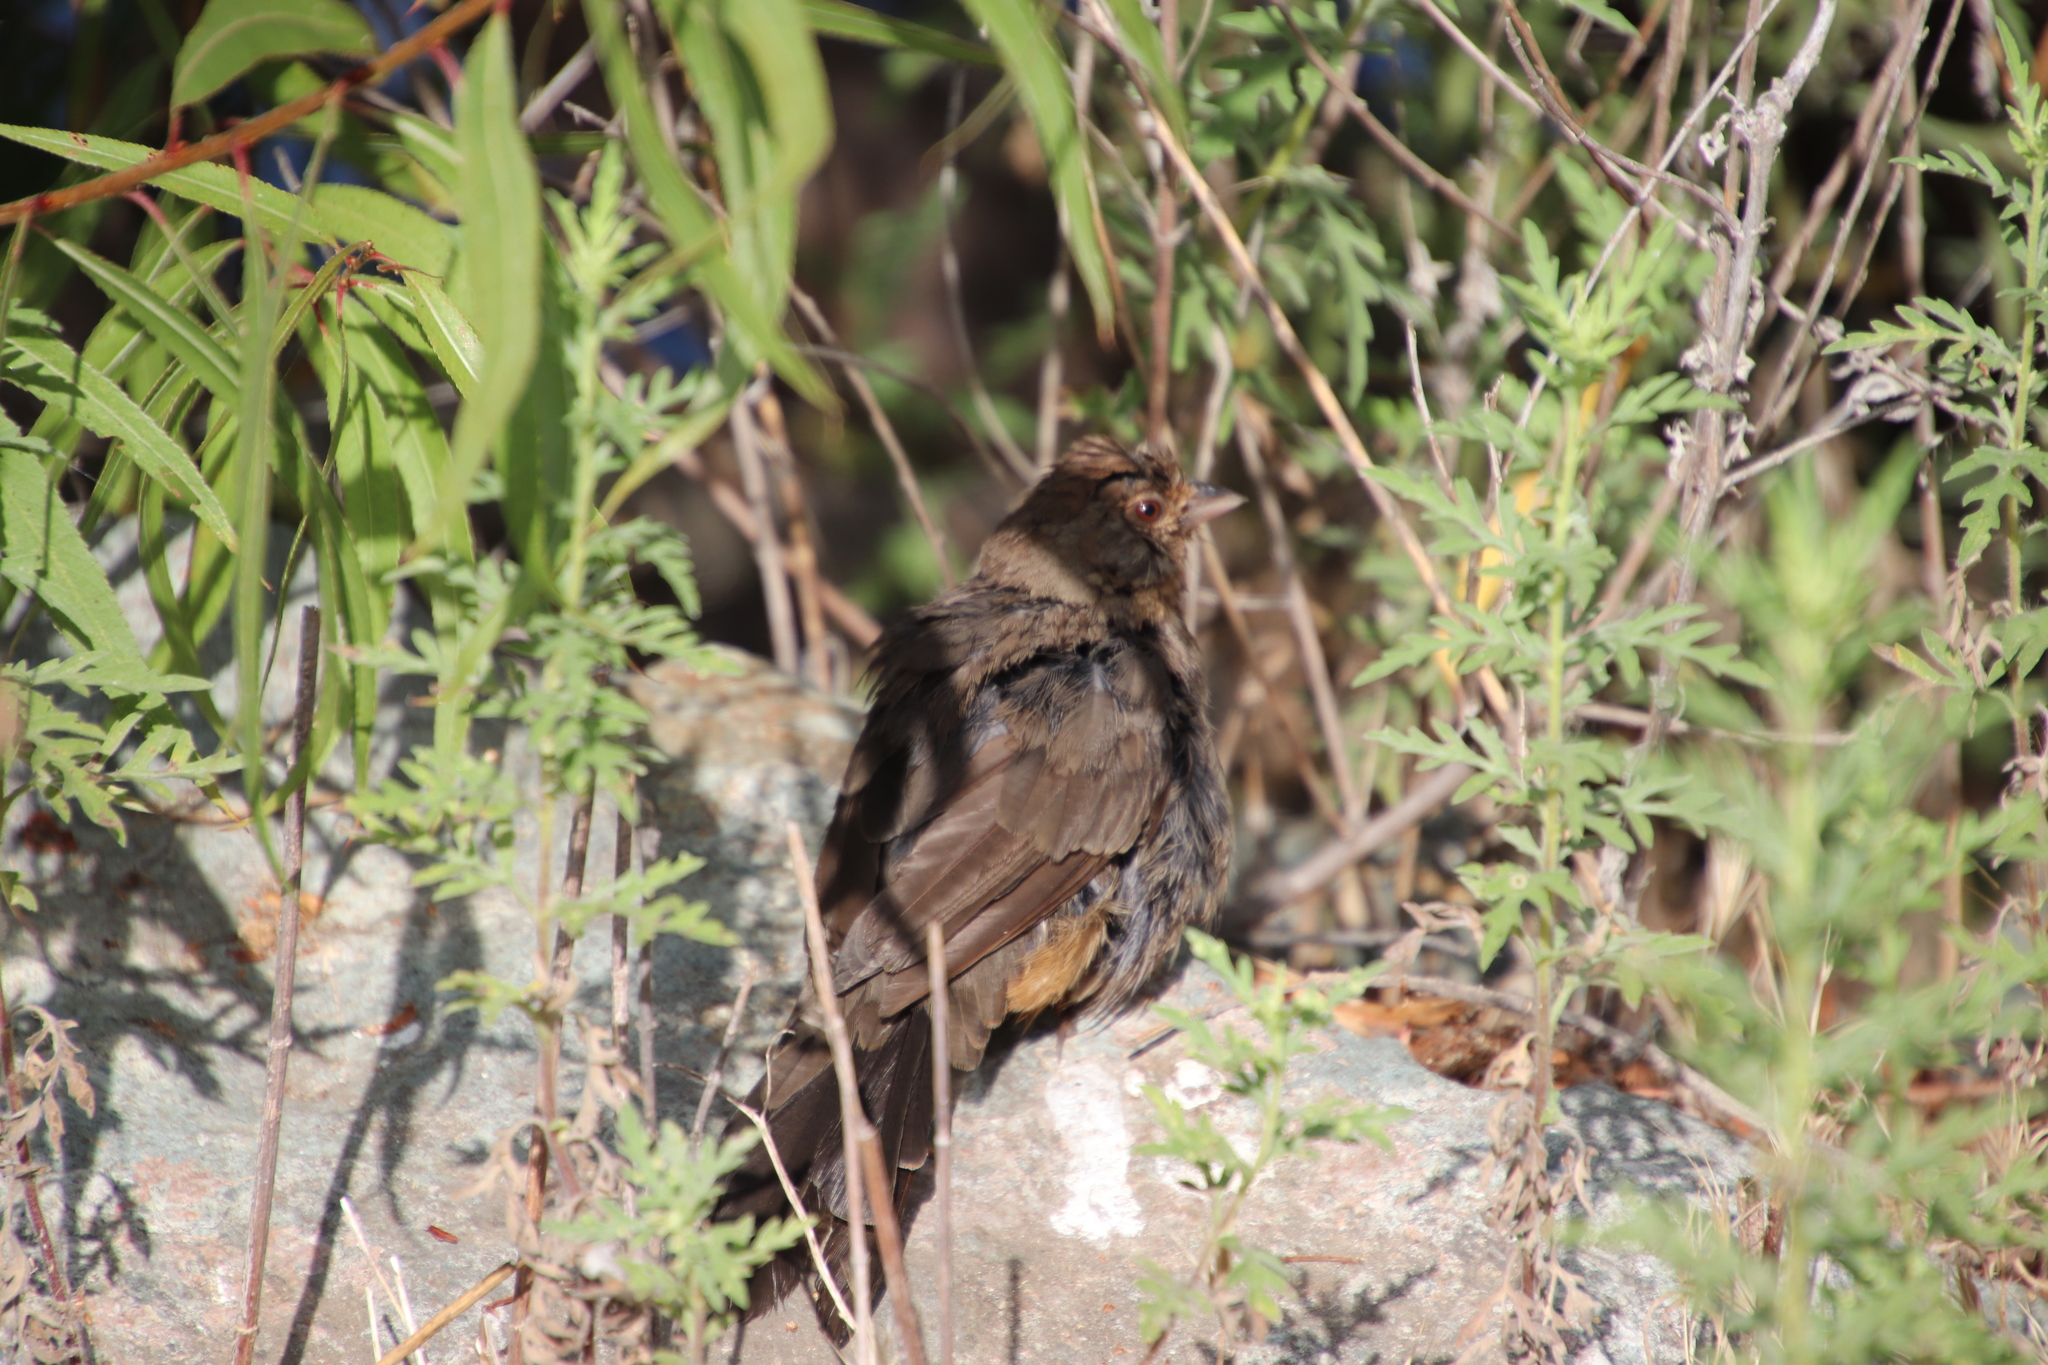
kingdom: Animalia
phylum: Chordata
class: Aves
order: Passeriformes
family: Passerellidae
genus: Melozone
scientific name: Melozone crissalis
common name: California towhee
